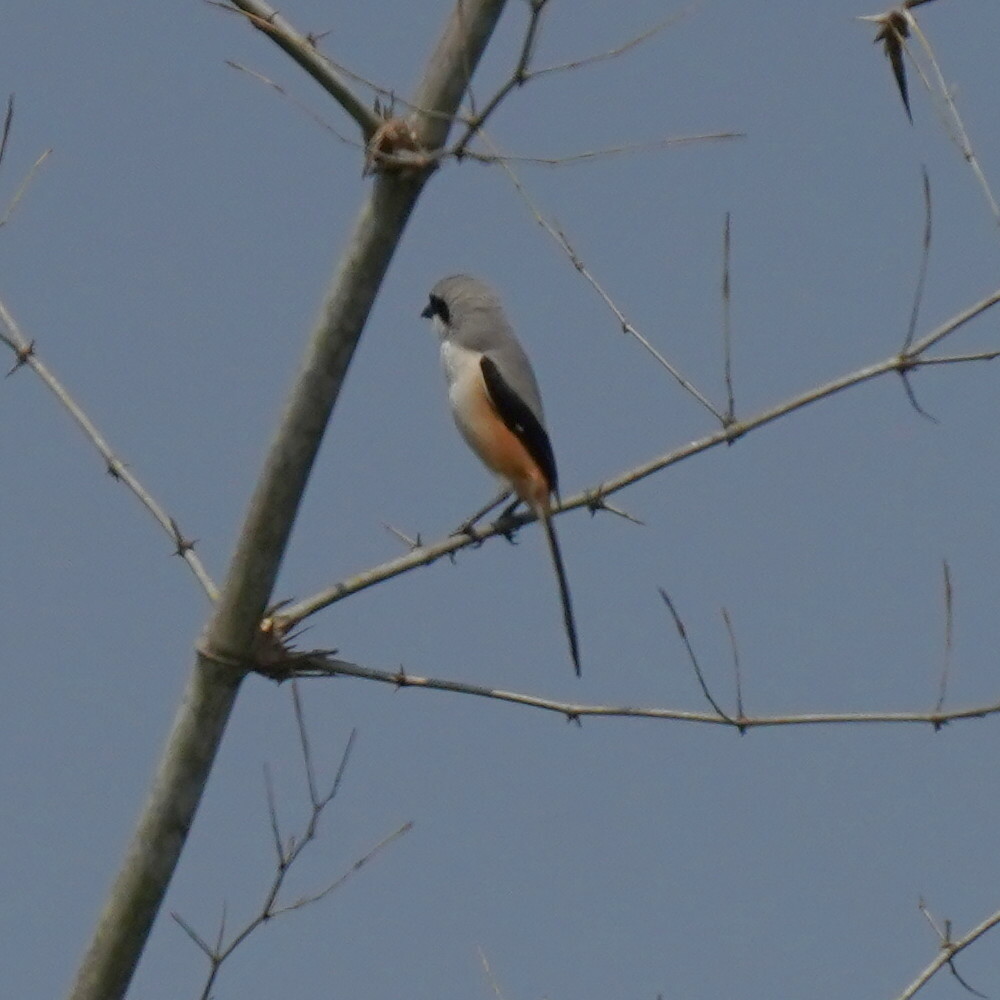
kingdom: Animalia
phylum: Chordata
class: Aves
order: Passeriformes
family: Laniidae
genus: Lanius
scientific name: Lanius schach
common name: Long-tailed shrike
